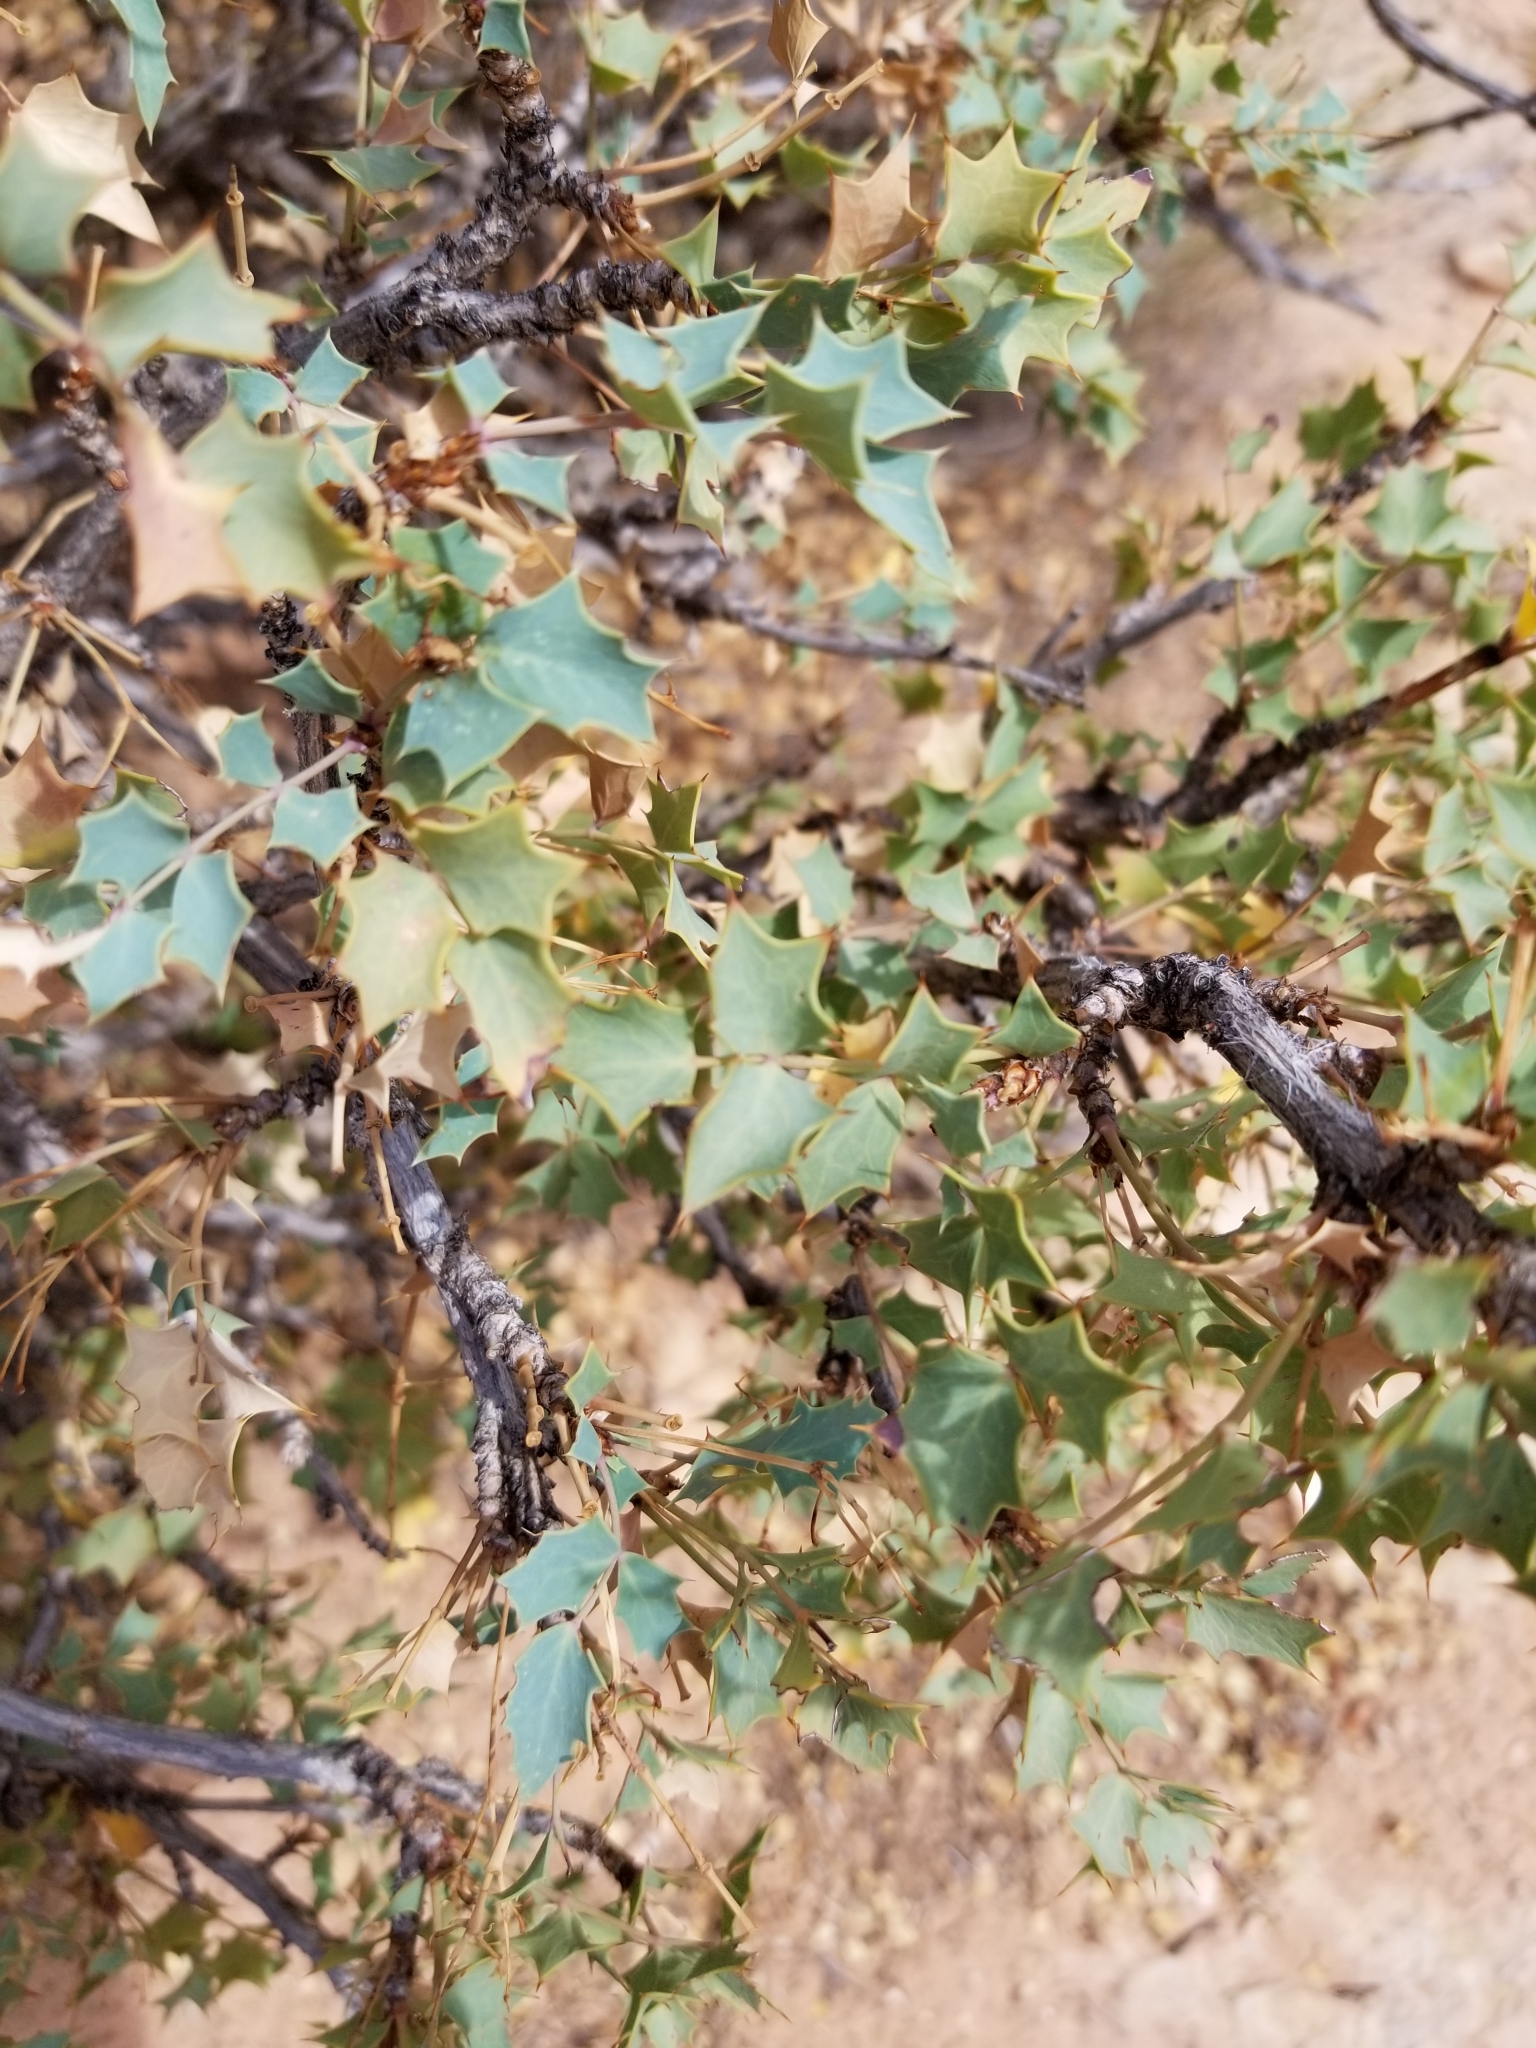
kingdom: Plantae
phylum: Tracheophyta
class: Magnoliopsida
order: Ranunculales
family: Berberidaceae
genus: Alloberberis
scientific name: Alloberberis fremontii
